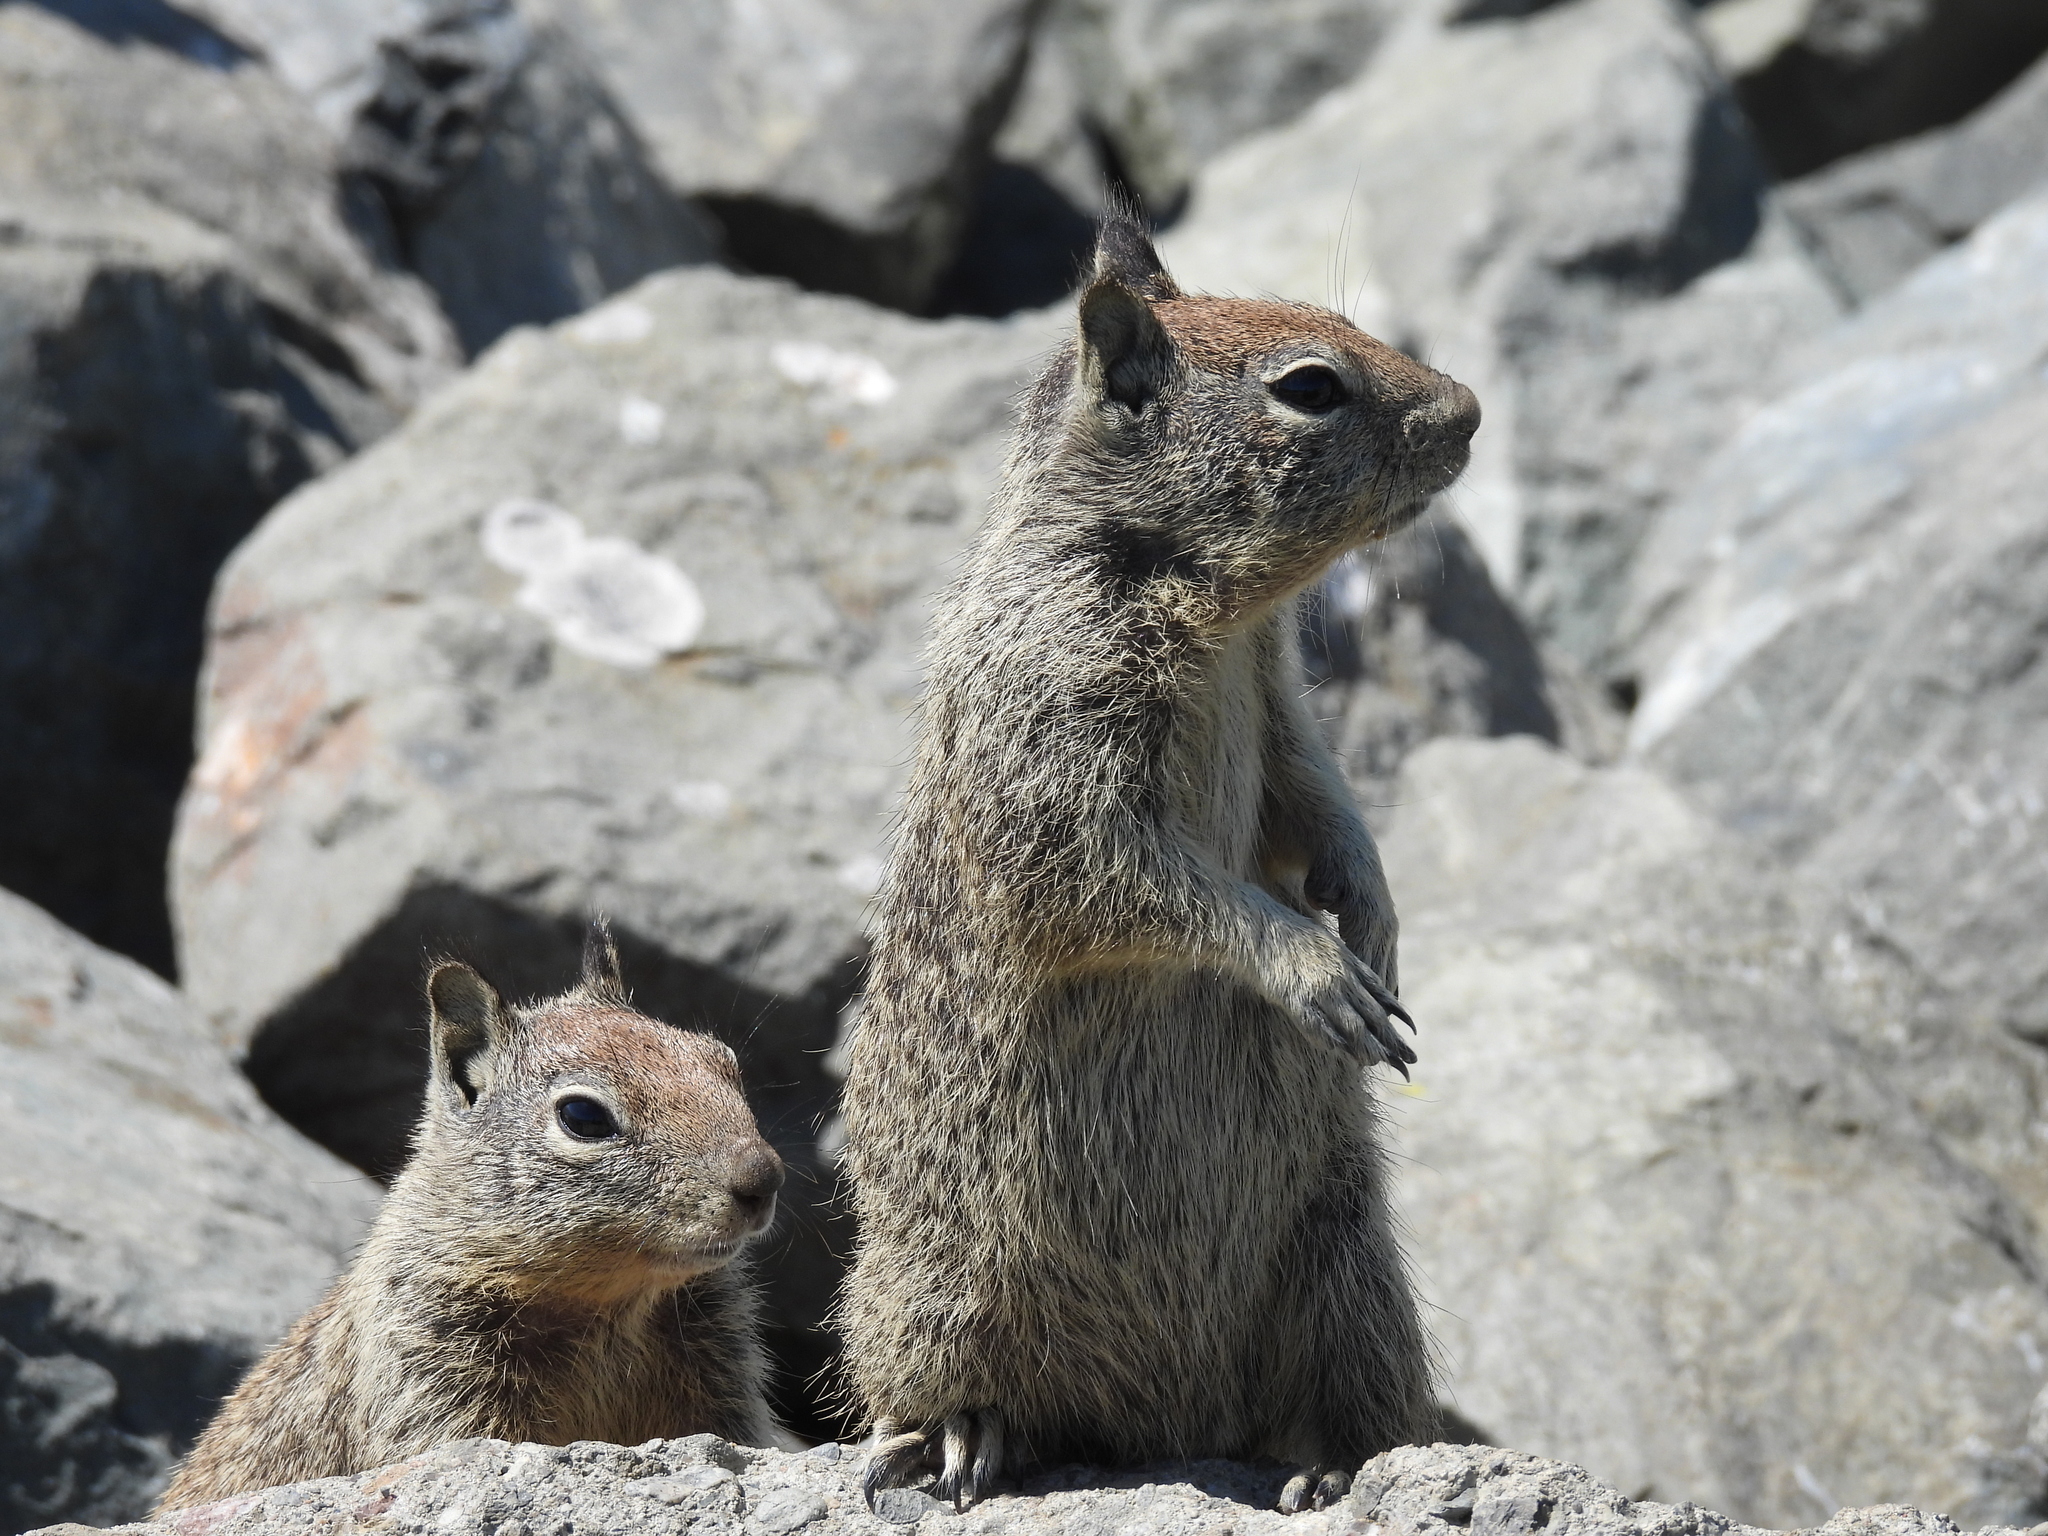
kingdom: Animalia
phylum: Chordata
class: Mammalia
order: Rodentia
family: Sciuridae
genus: Otospermophilus
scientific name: Otospermophilus beecheyi
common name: California ground squirrel
